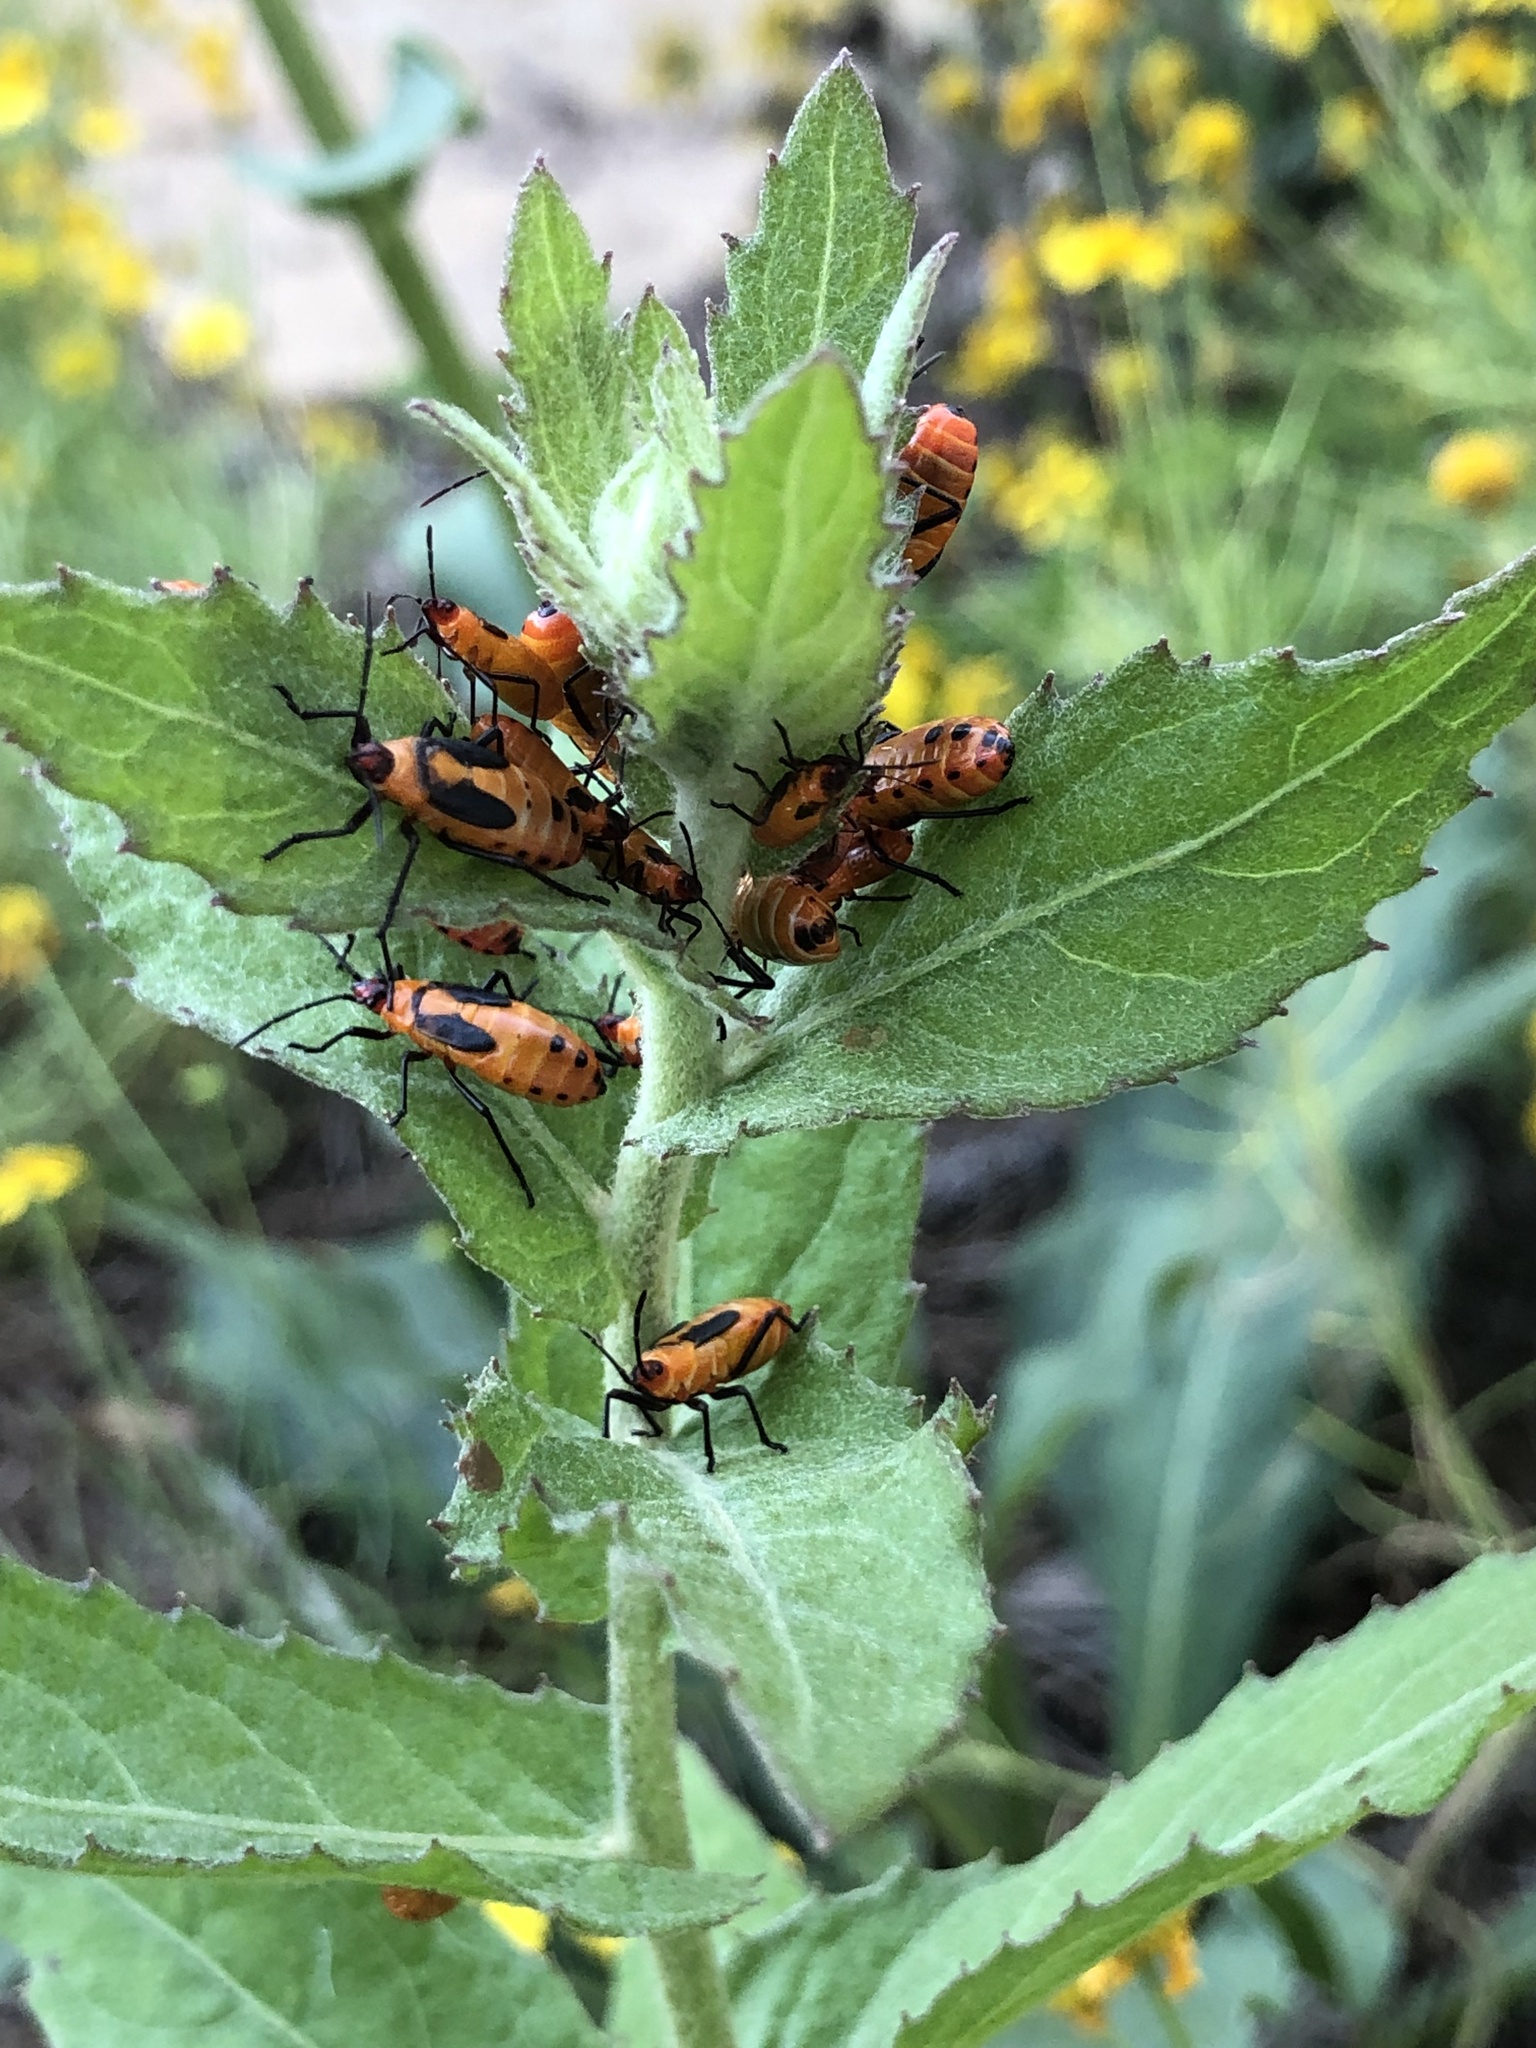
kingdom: Animalia
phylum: Arthropoda
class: Insecta
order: Hemiptera
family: Lygaeidae
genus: Oncopeltus
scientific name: Oncopeltus fasciatus
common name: Large milkweed bug
